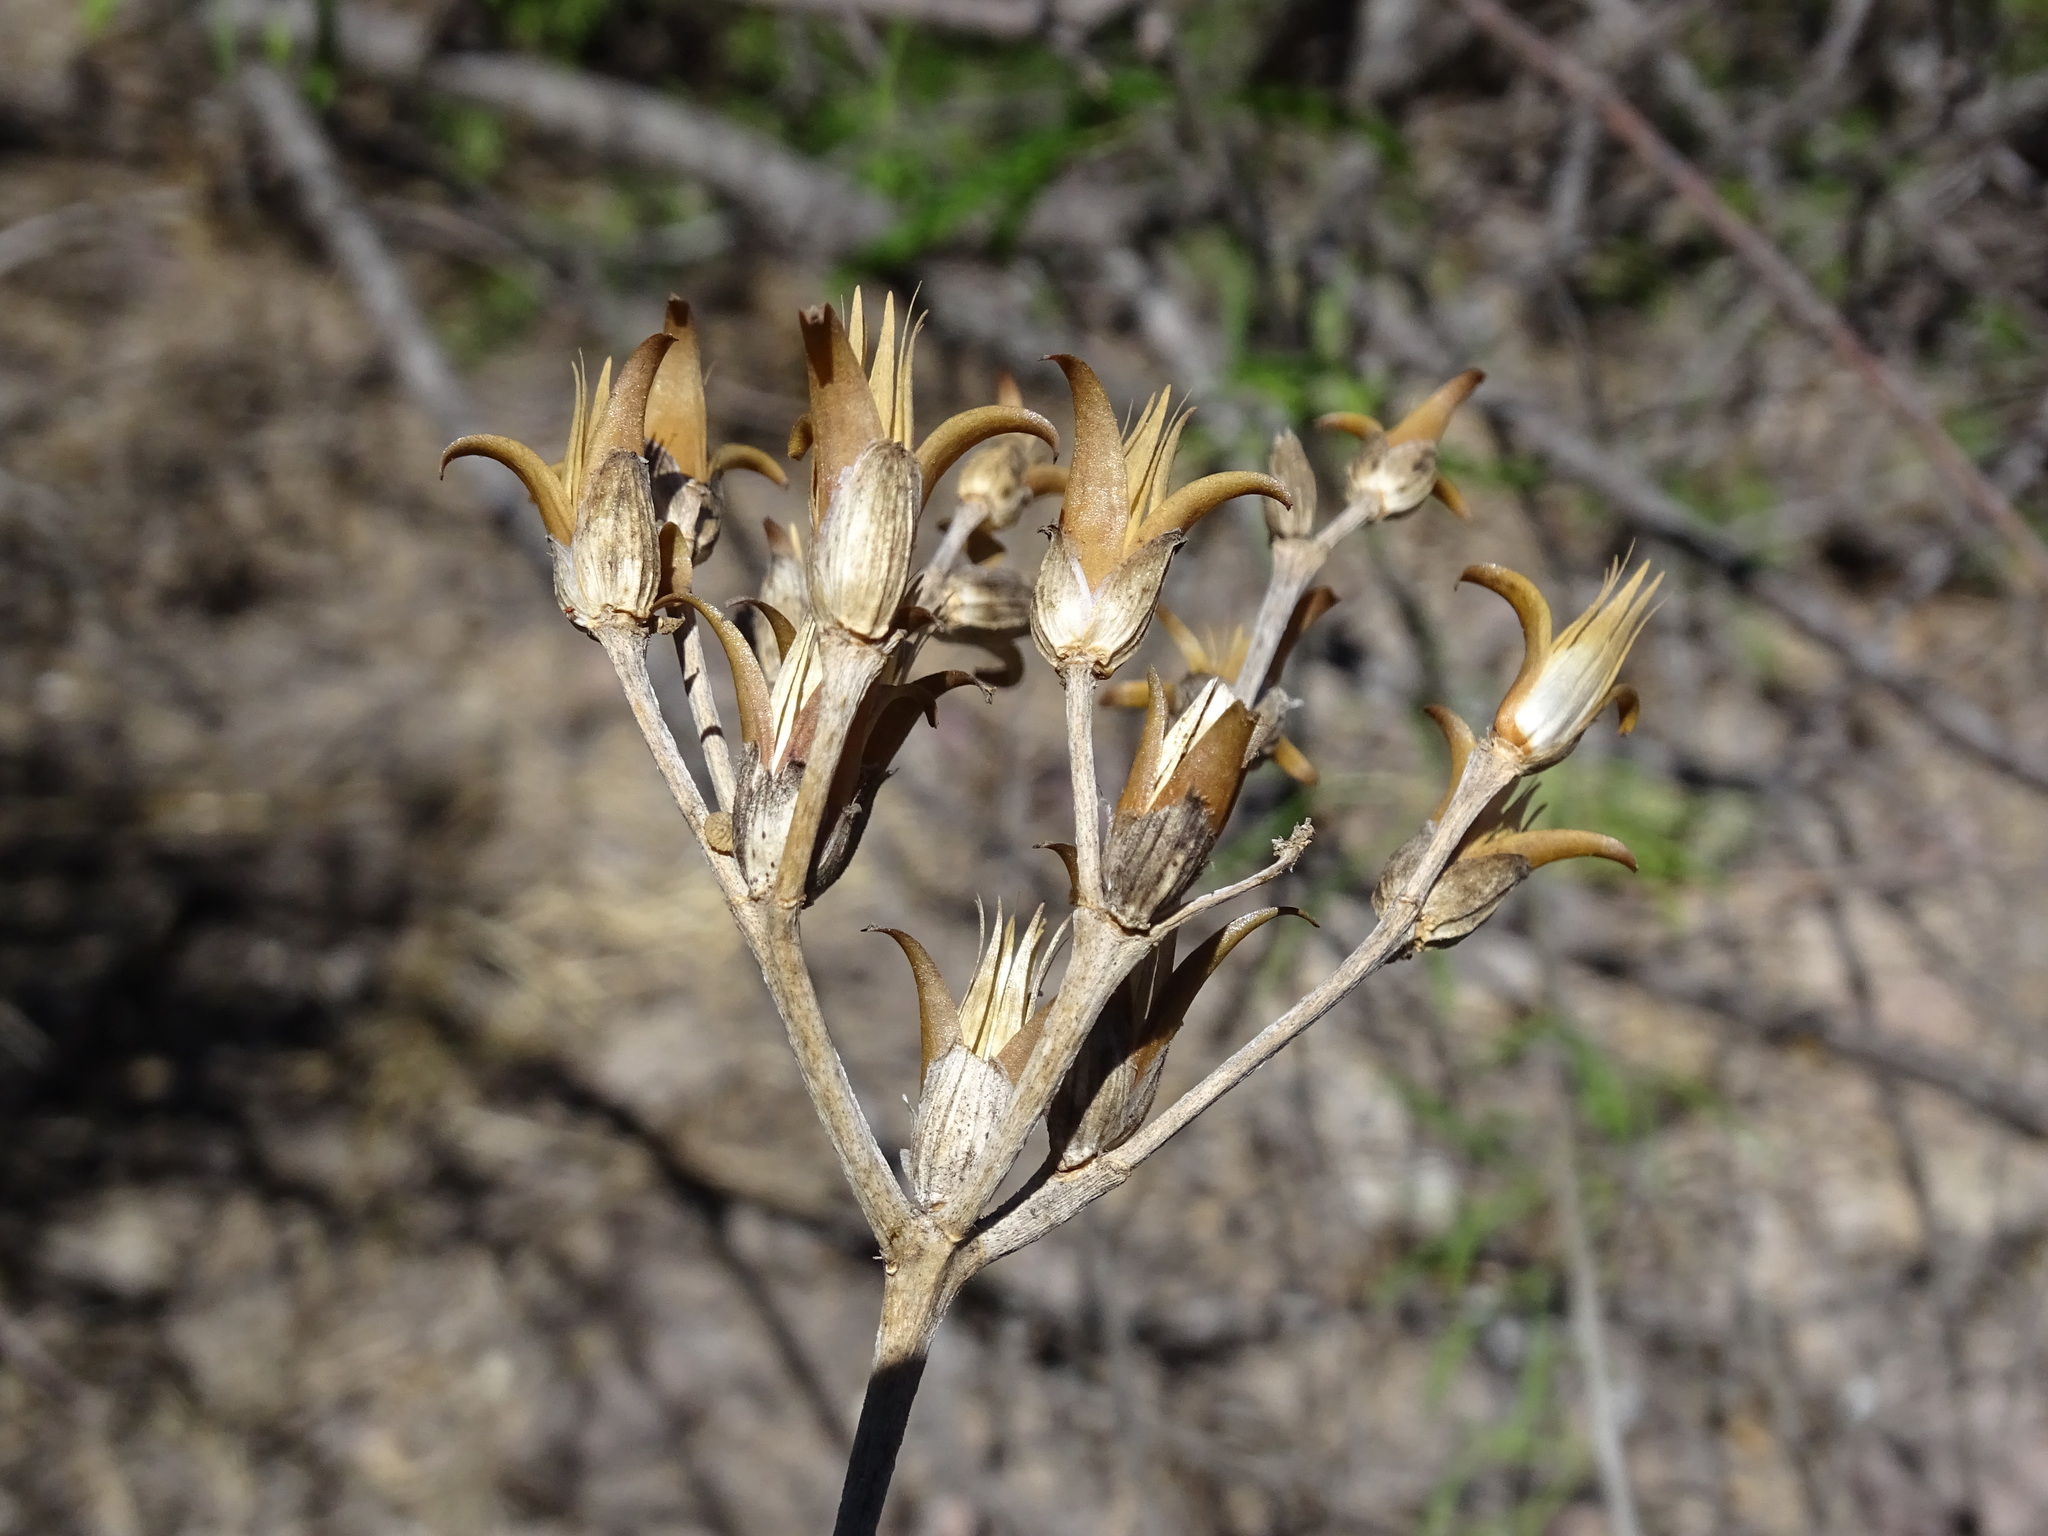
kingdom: Plantae
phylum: Tracheophyta
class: Magnoliopsida
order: Caryophyllales
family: Anacampserotaceae
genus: Grahamia
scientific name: Grahamia frutescens
